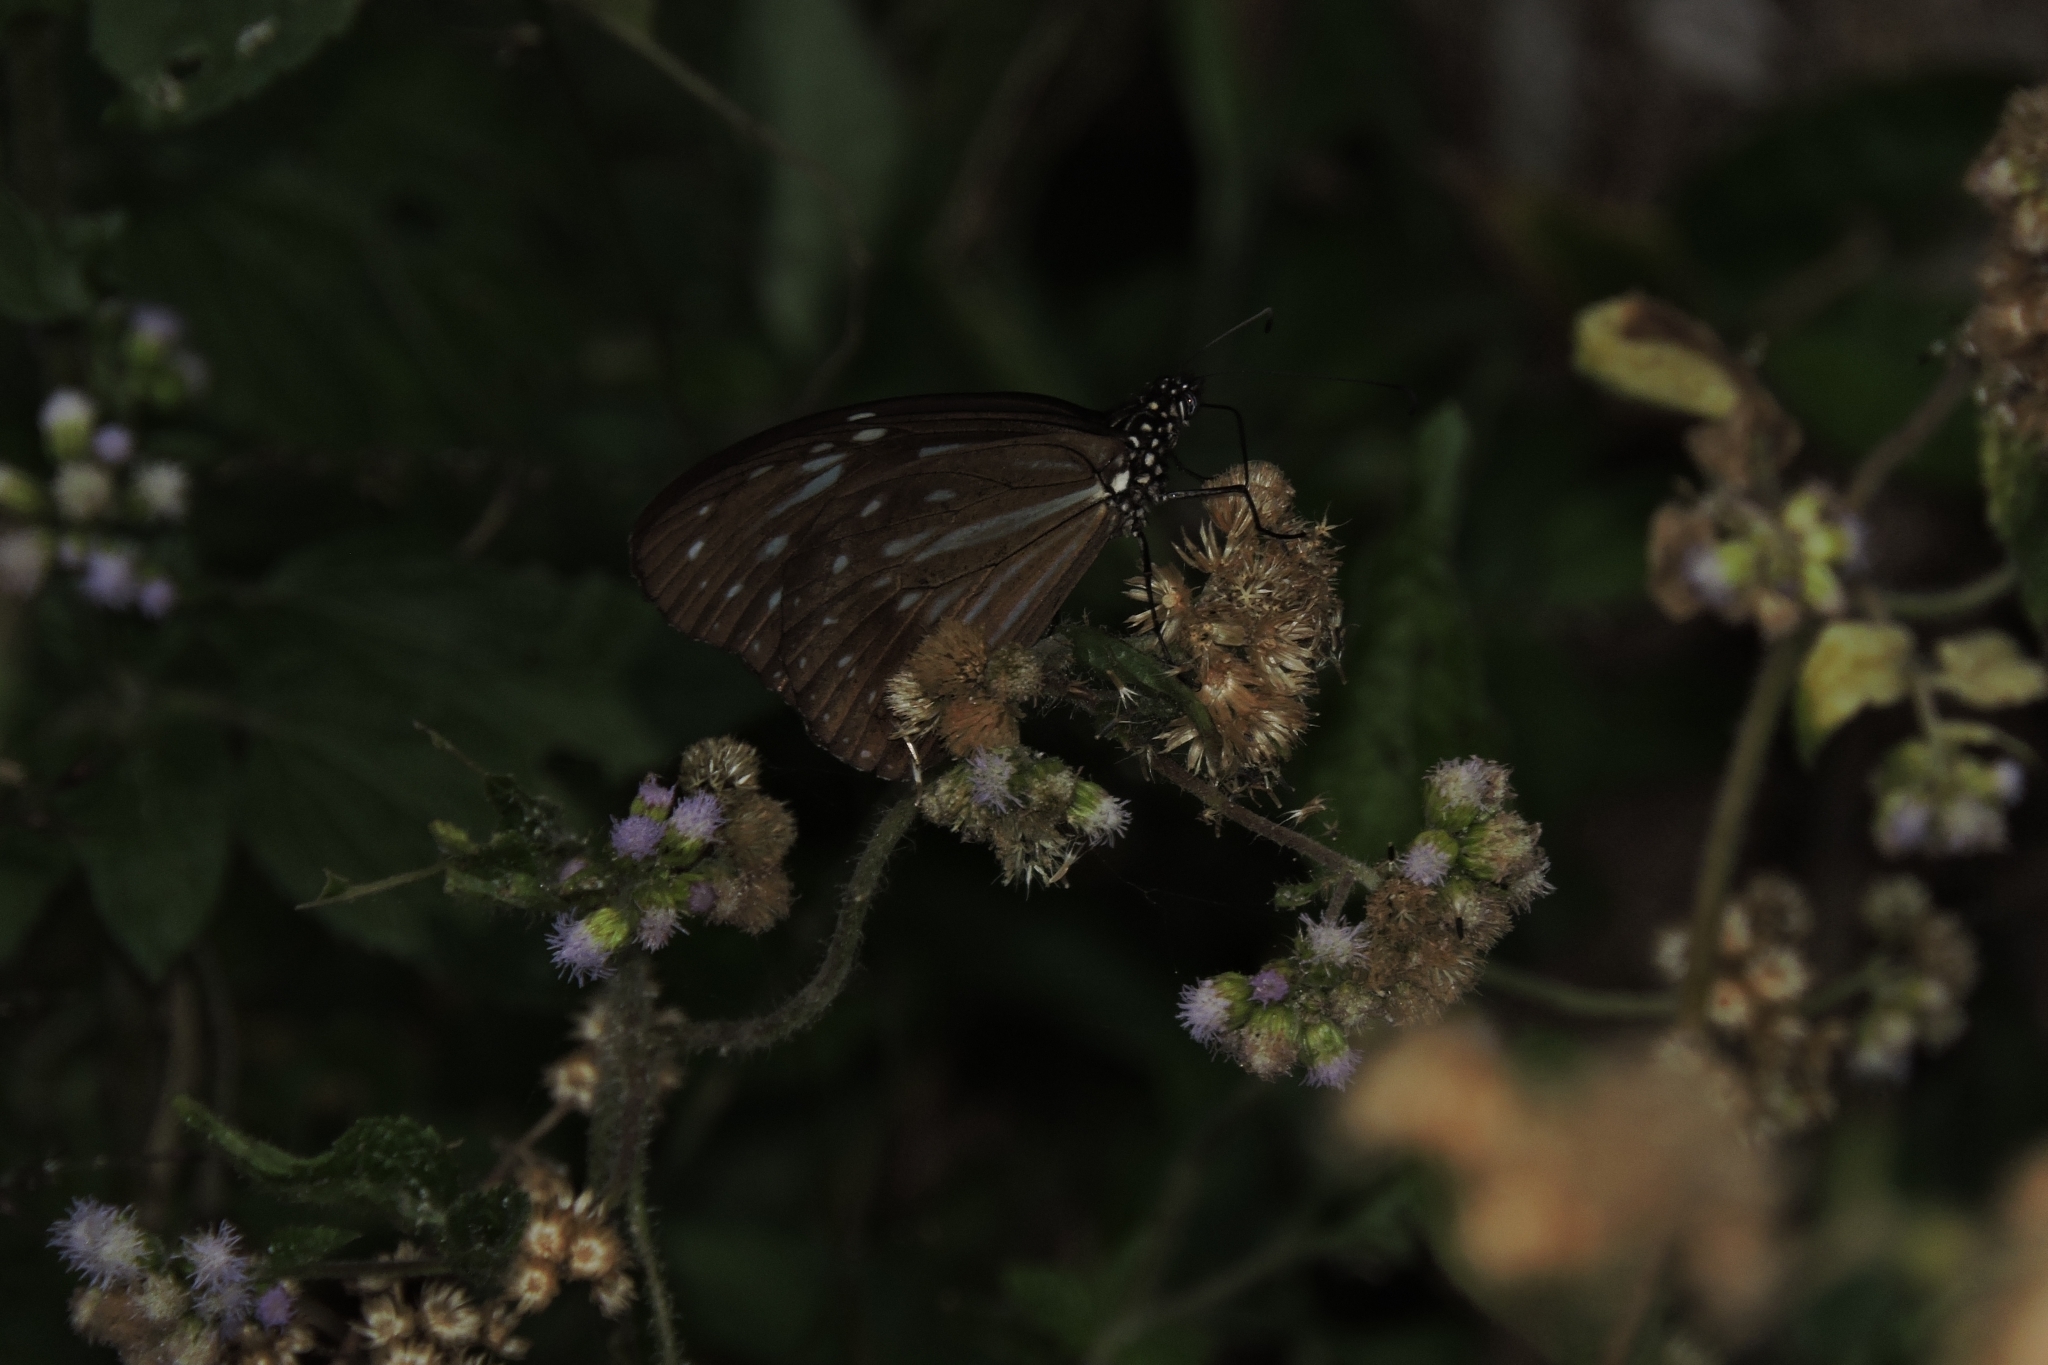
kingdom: Animalia
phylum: Arthropoda
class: Insecta
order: Lepidoptera
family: Nymphalidae
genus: Parantica
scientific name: Parantica nilgiriensis
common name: Nilgiri tiger
